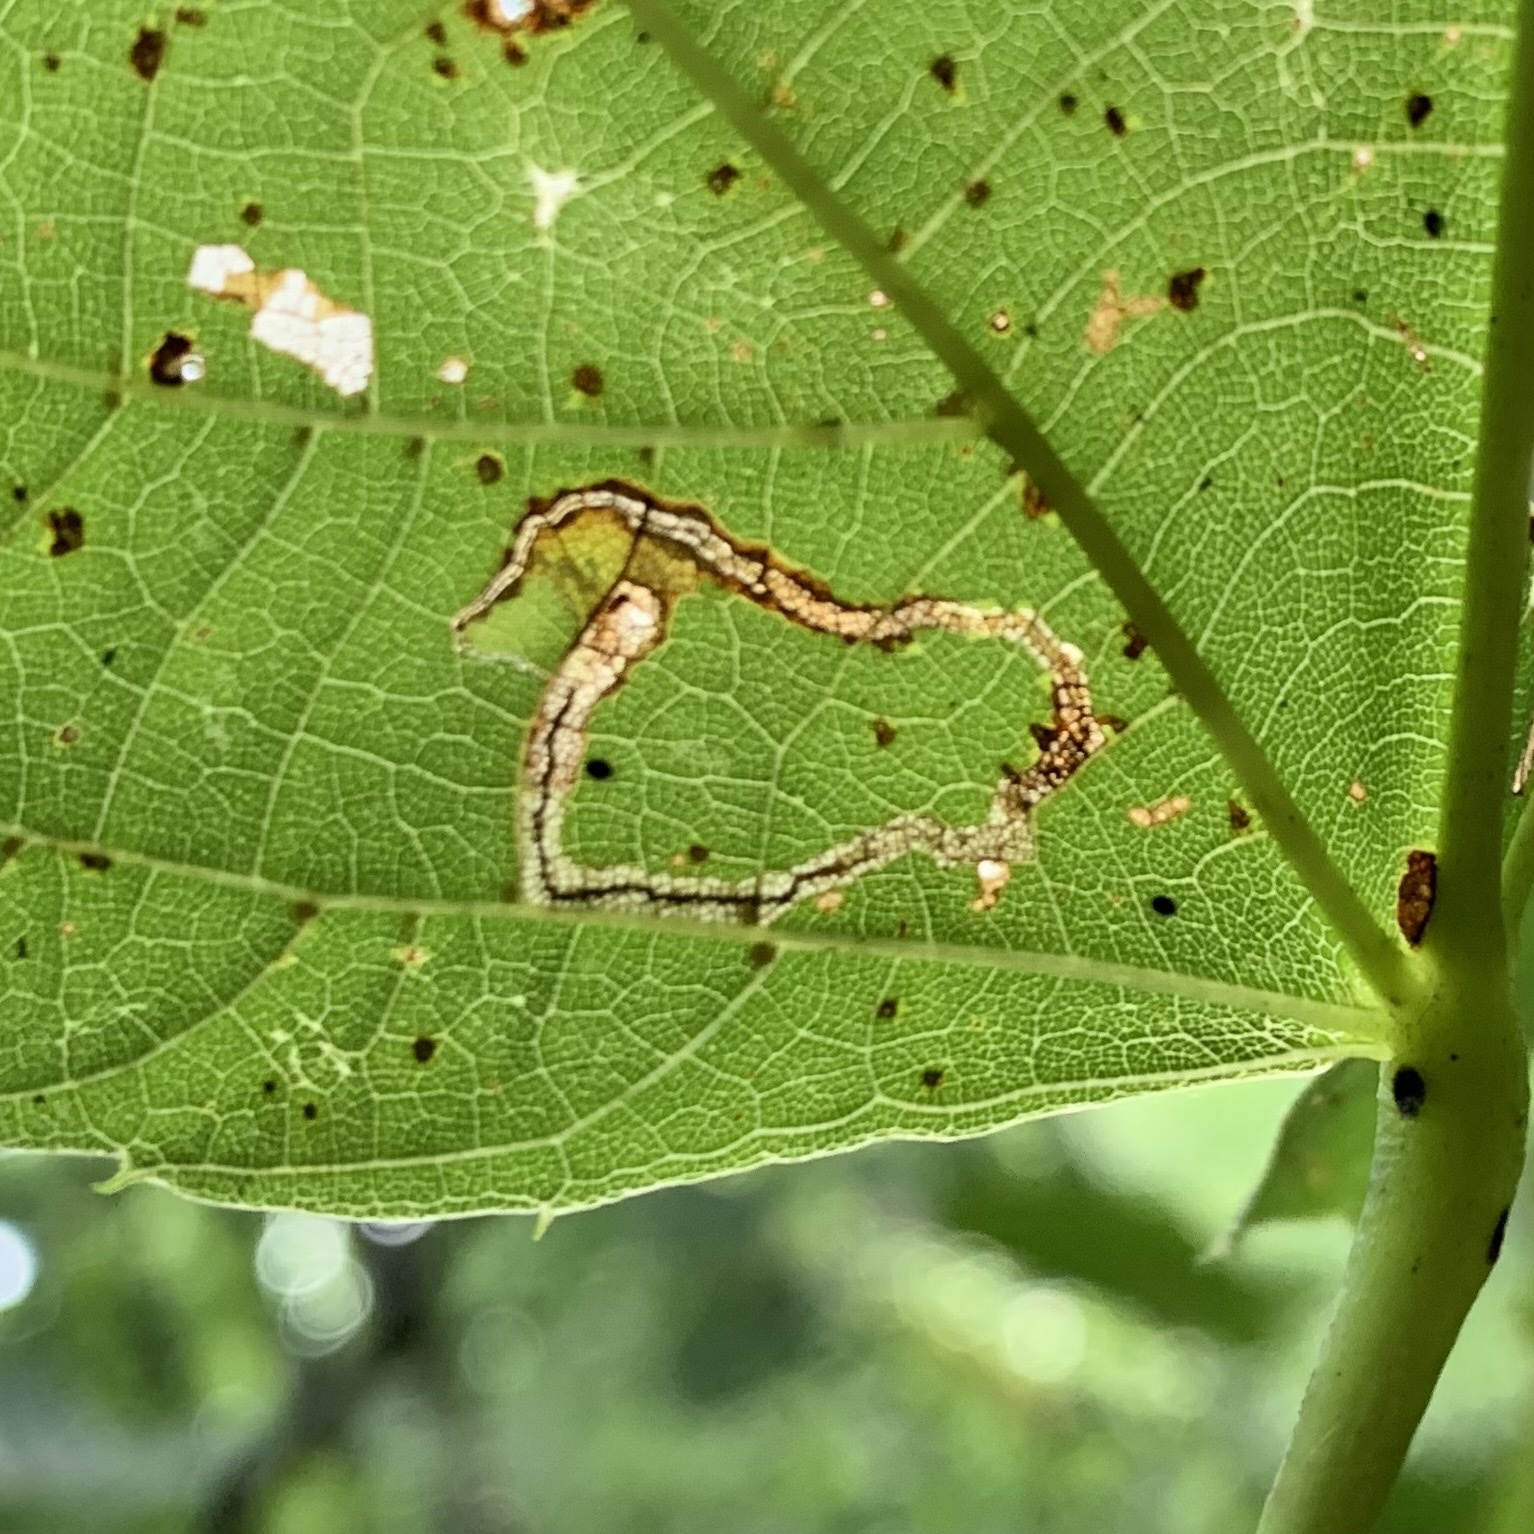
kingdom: Animalia
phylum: Arthropoda
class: Insecta
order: Lepidoptera
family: Nepticulidae
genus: Stigmella
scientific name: Stigmella tiliella
